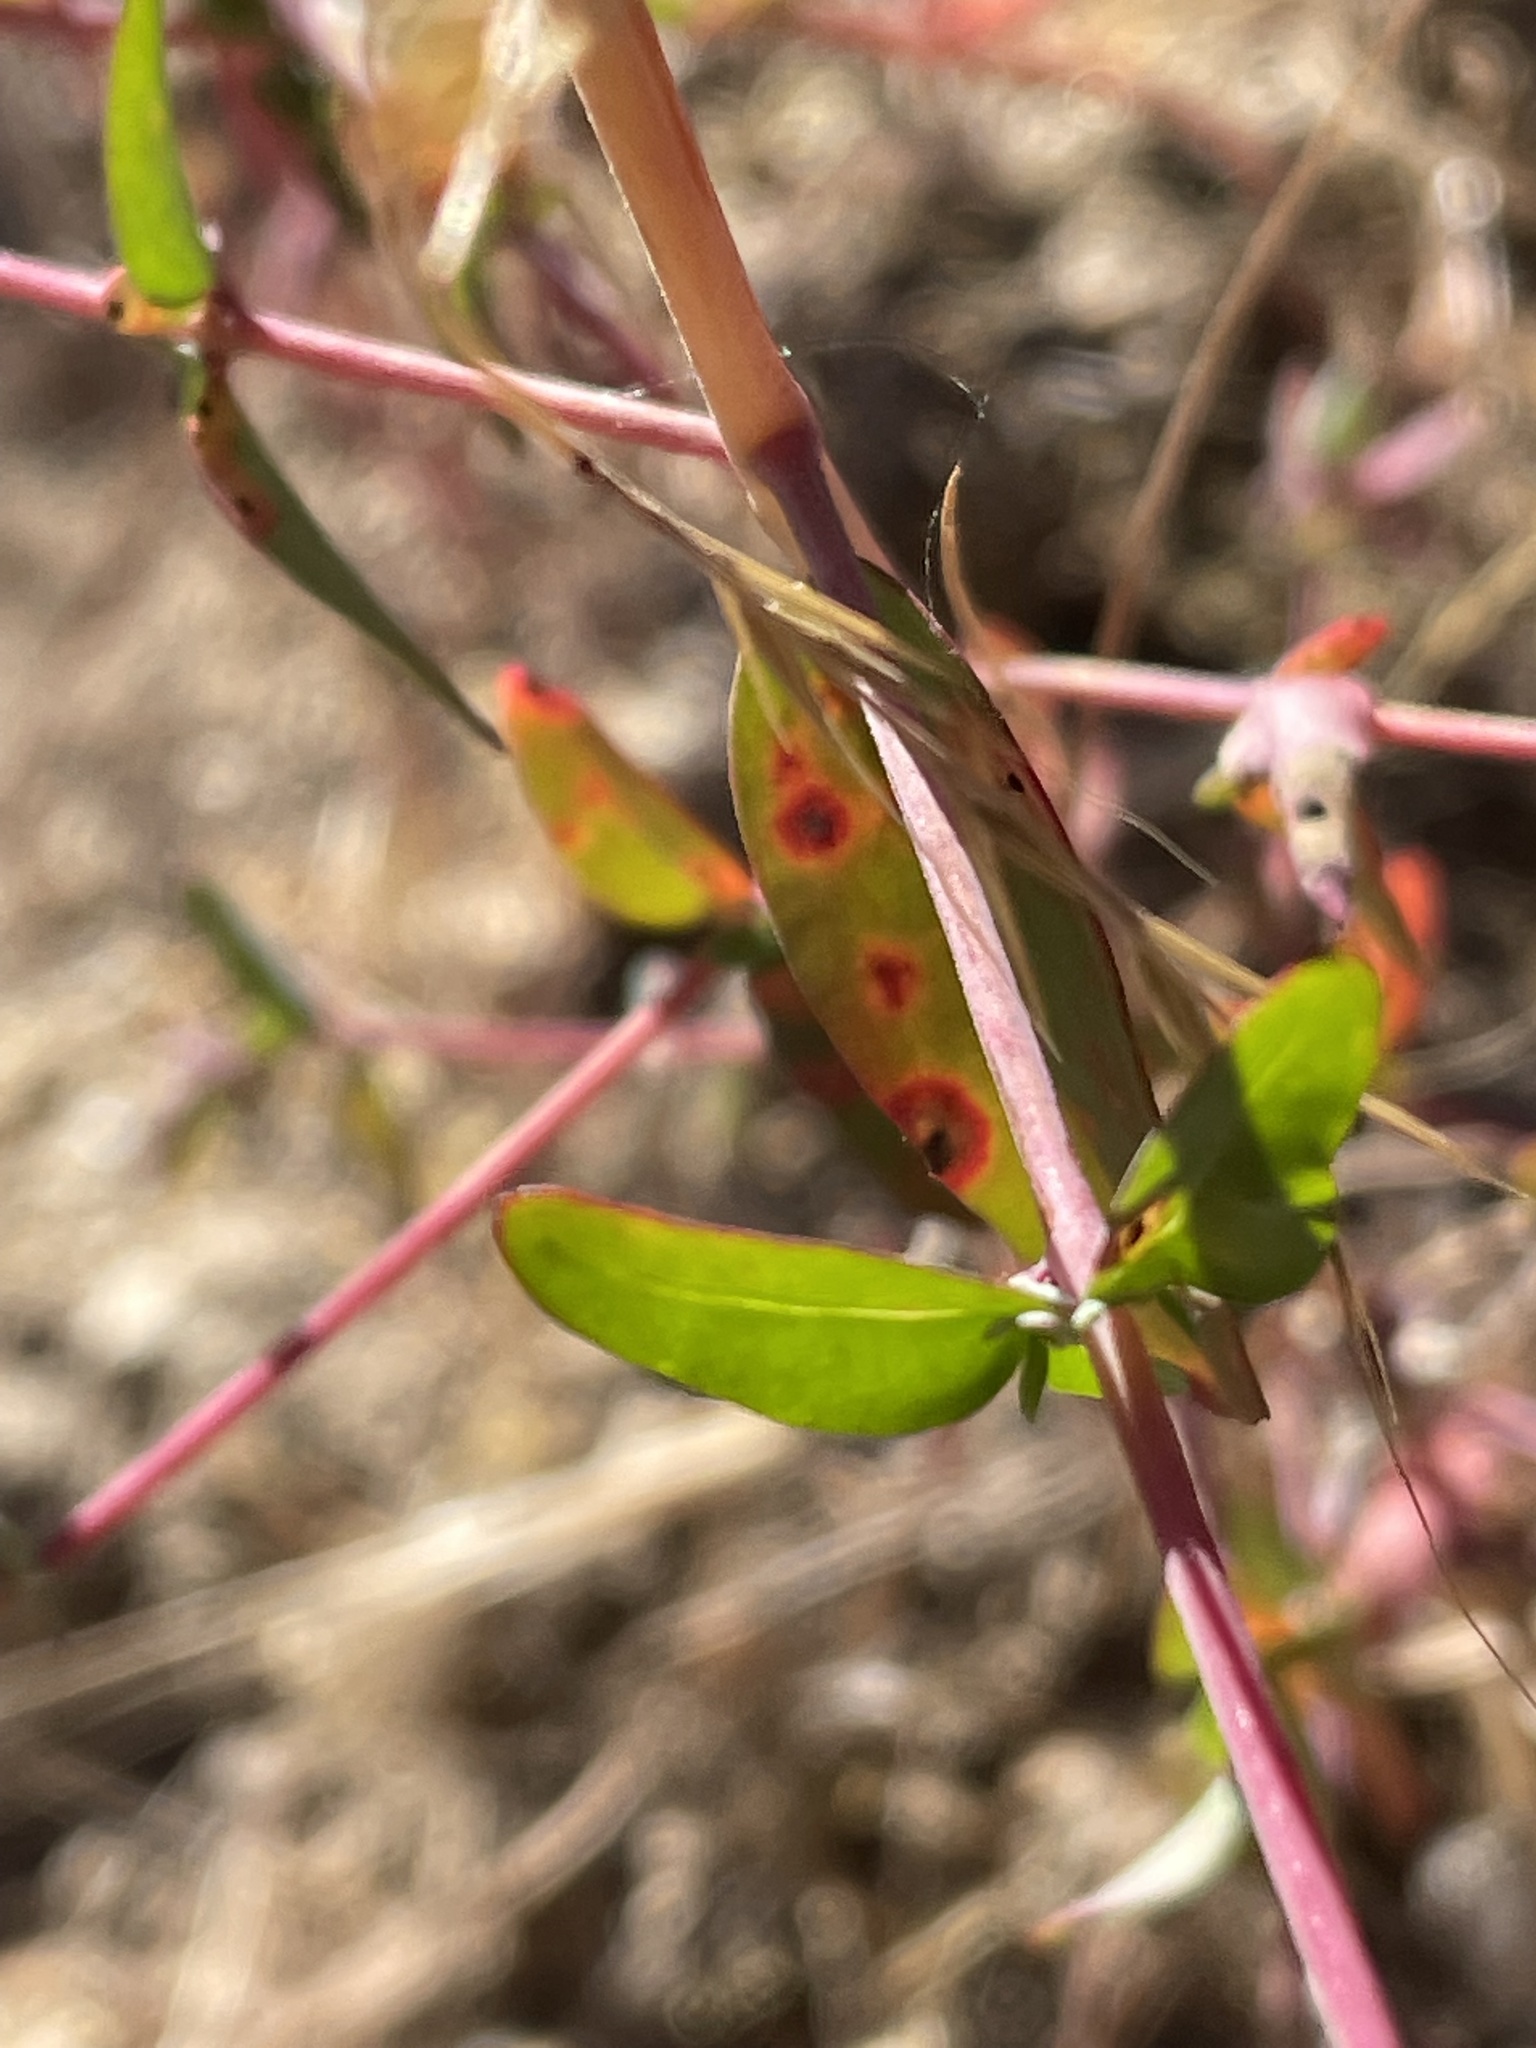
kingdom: Plantae
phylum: Tracheophyta
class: Magnoliopsida
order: Myrtales
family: Onagraceae
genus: Clarkia
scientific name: Clarkia unguiculata
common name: Clarkia
